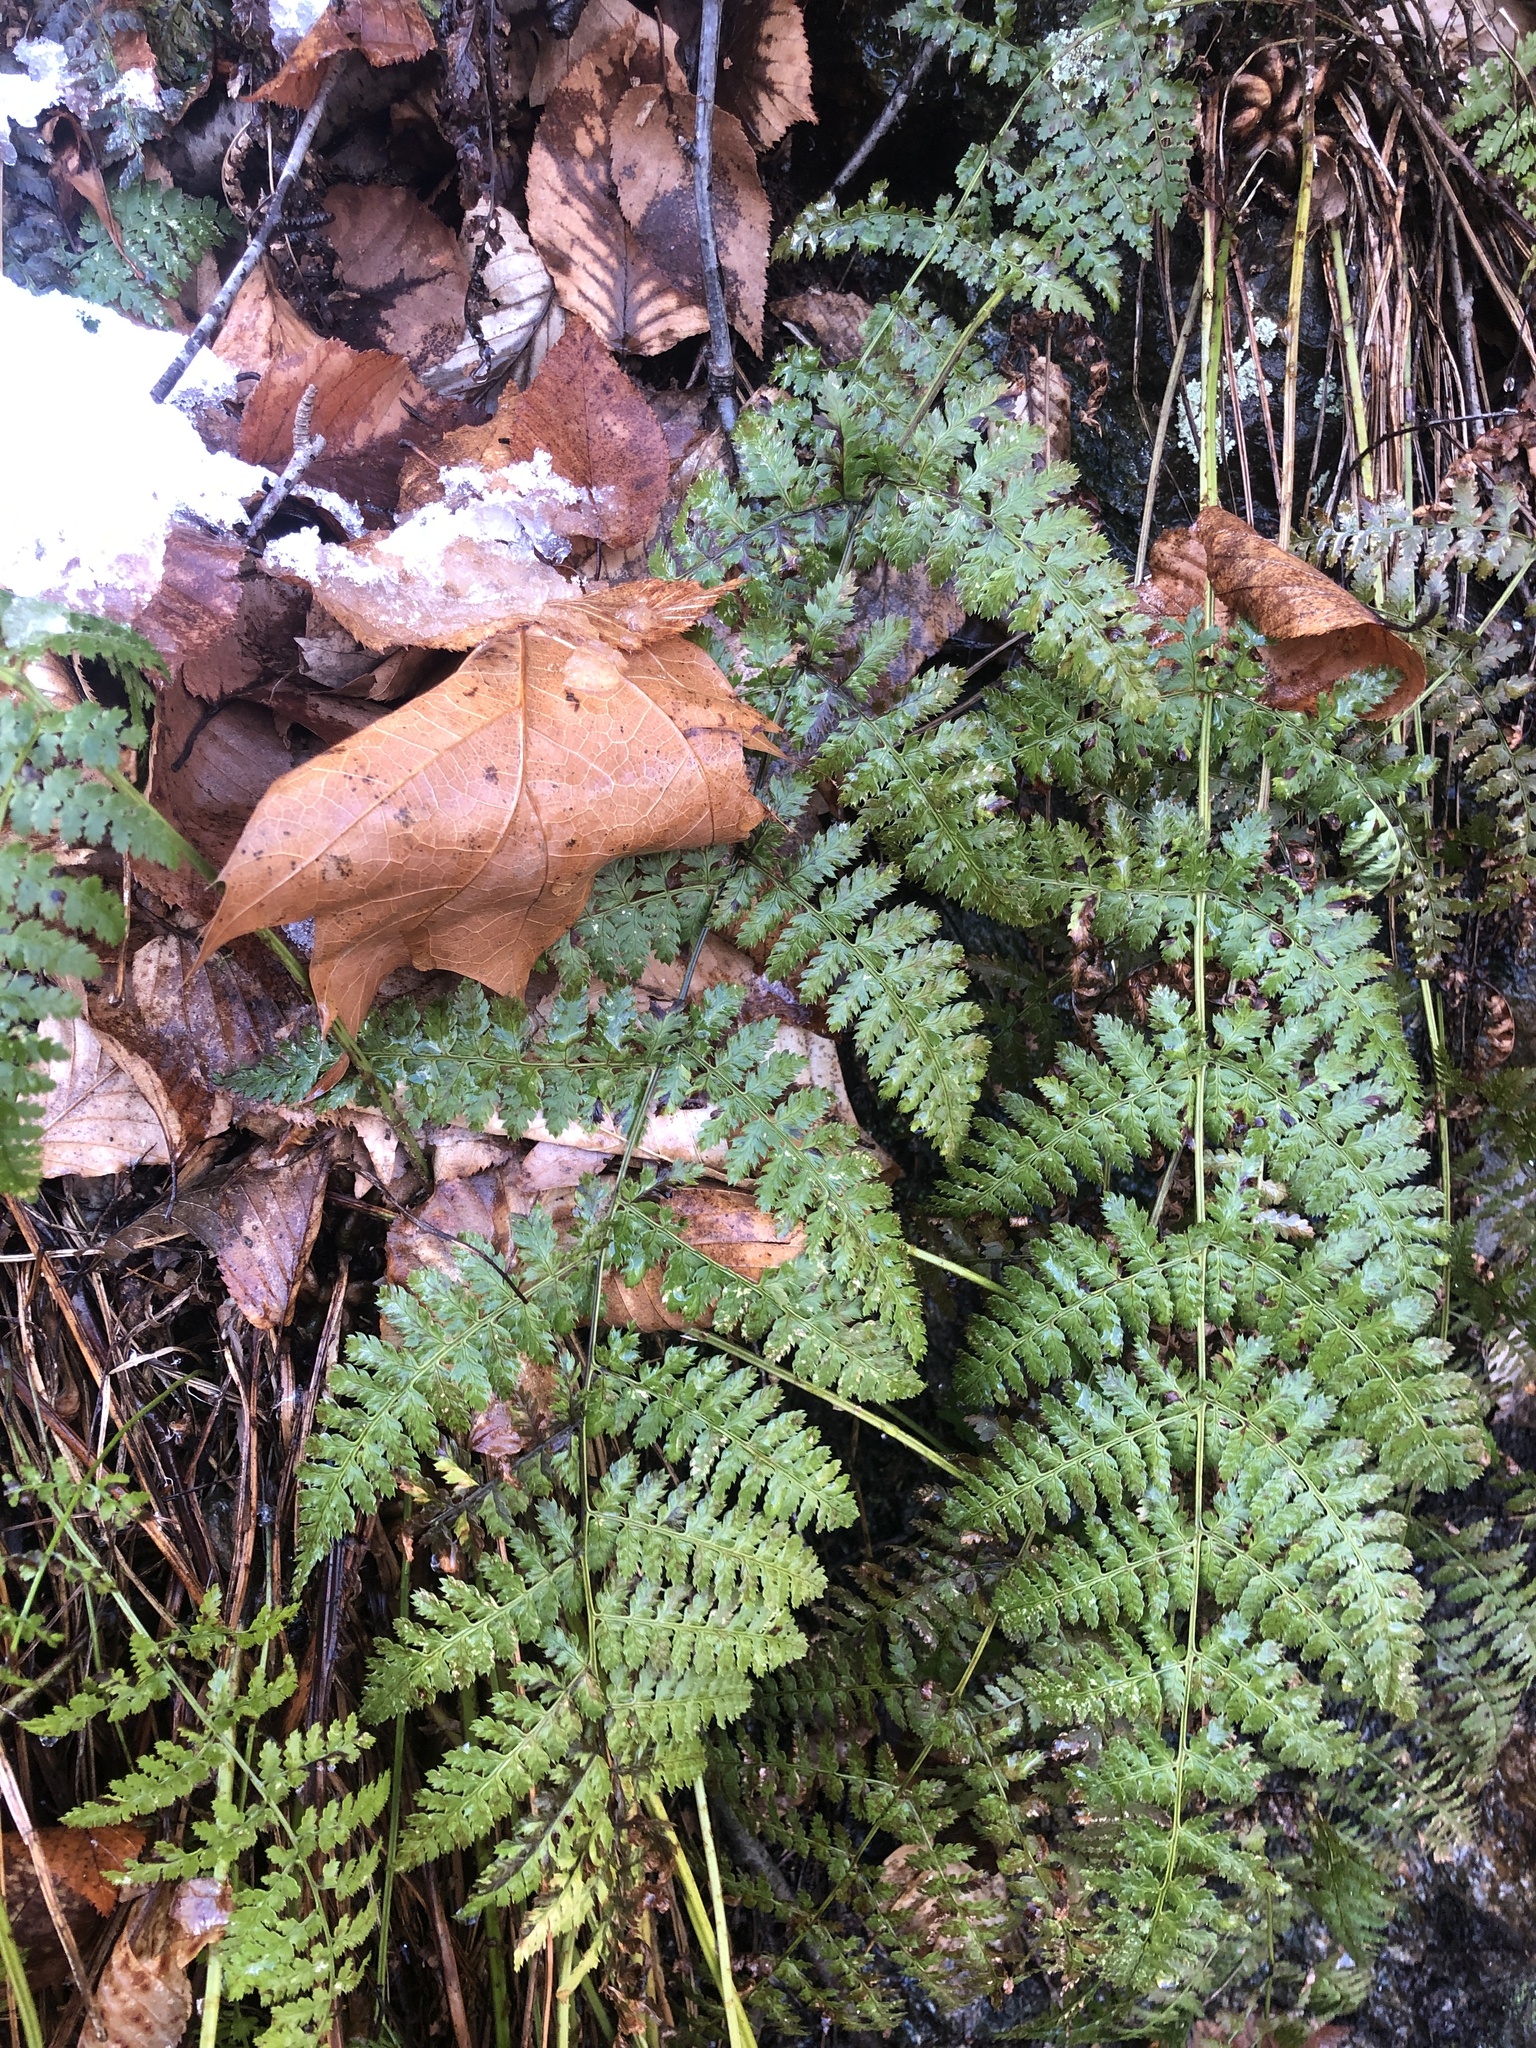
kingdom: Plantae
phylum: Tracheophyta
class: Polypodiopsida
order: Polypodiales
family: Dryopteridaceae
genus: Dryopteris
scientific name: Dryopteris intermedia
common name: Evergreen wood fern
